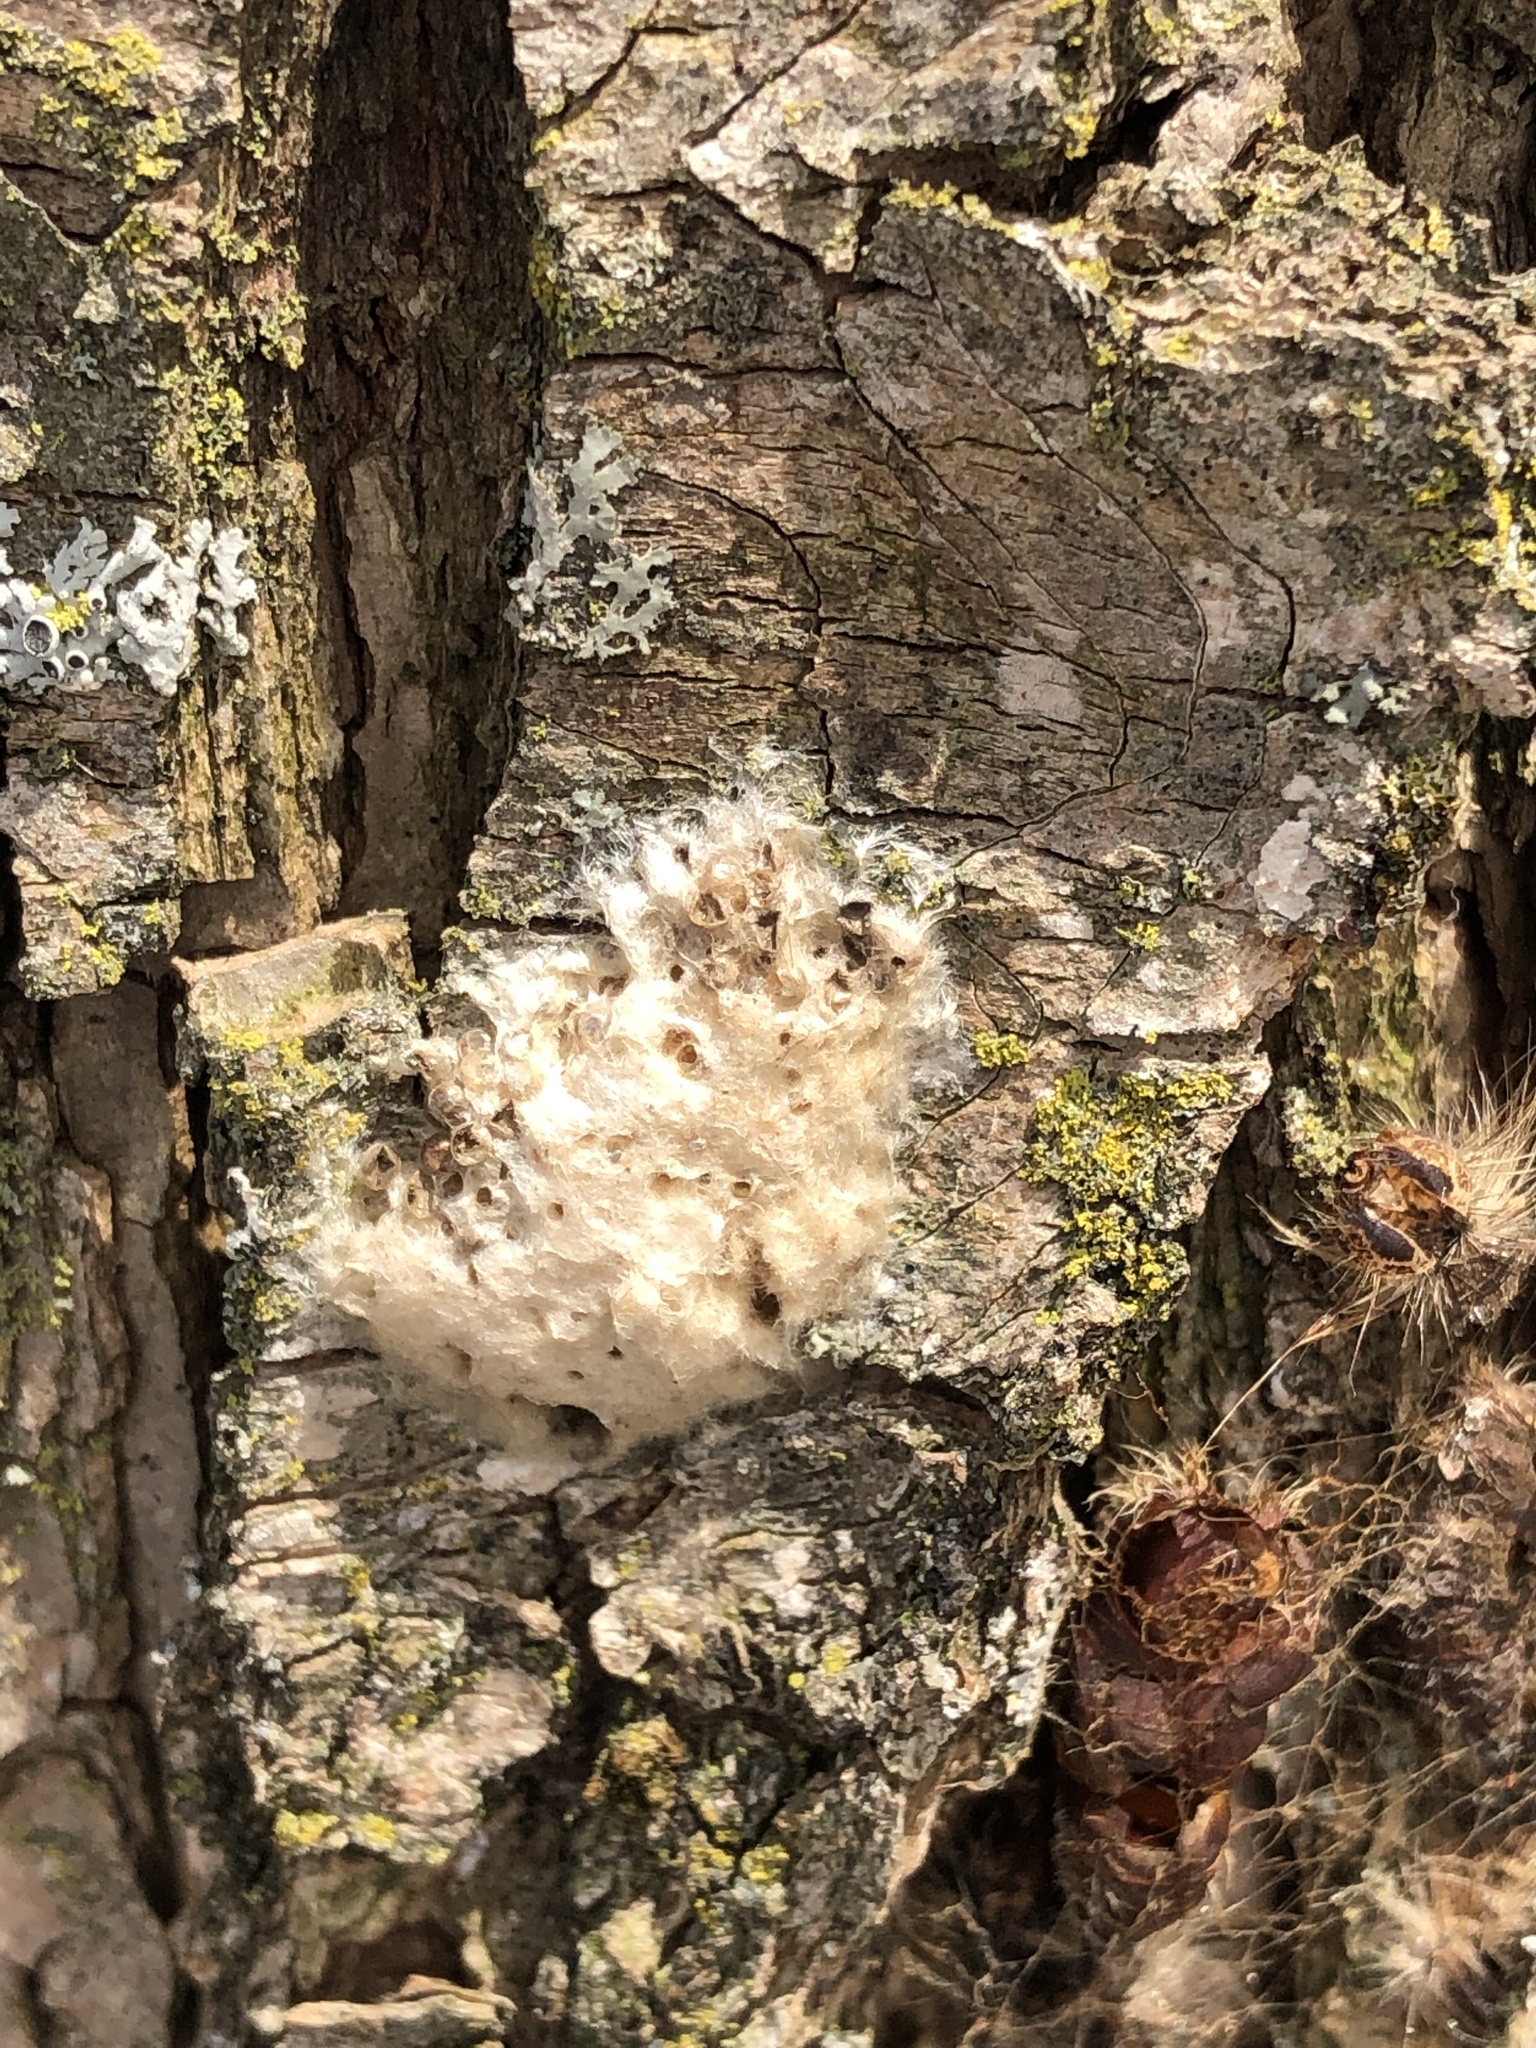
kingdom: Animalia
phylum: Arthropoda
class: Insecta
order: Lepidoptera
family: Erebidae
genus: Lymantria
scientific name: Lymantria dispar
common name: Gypsy moth
